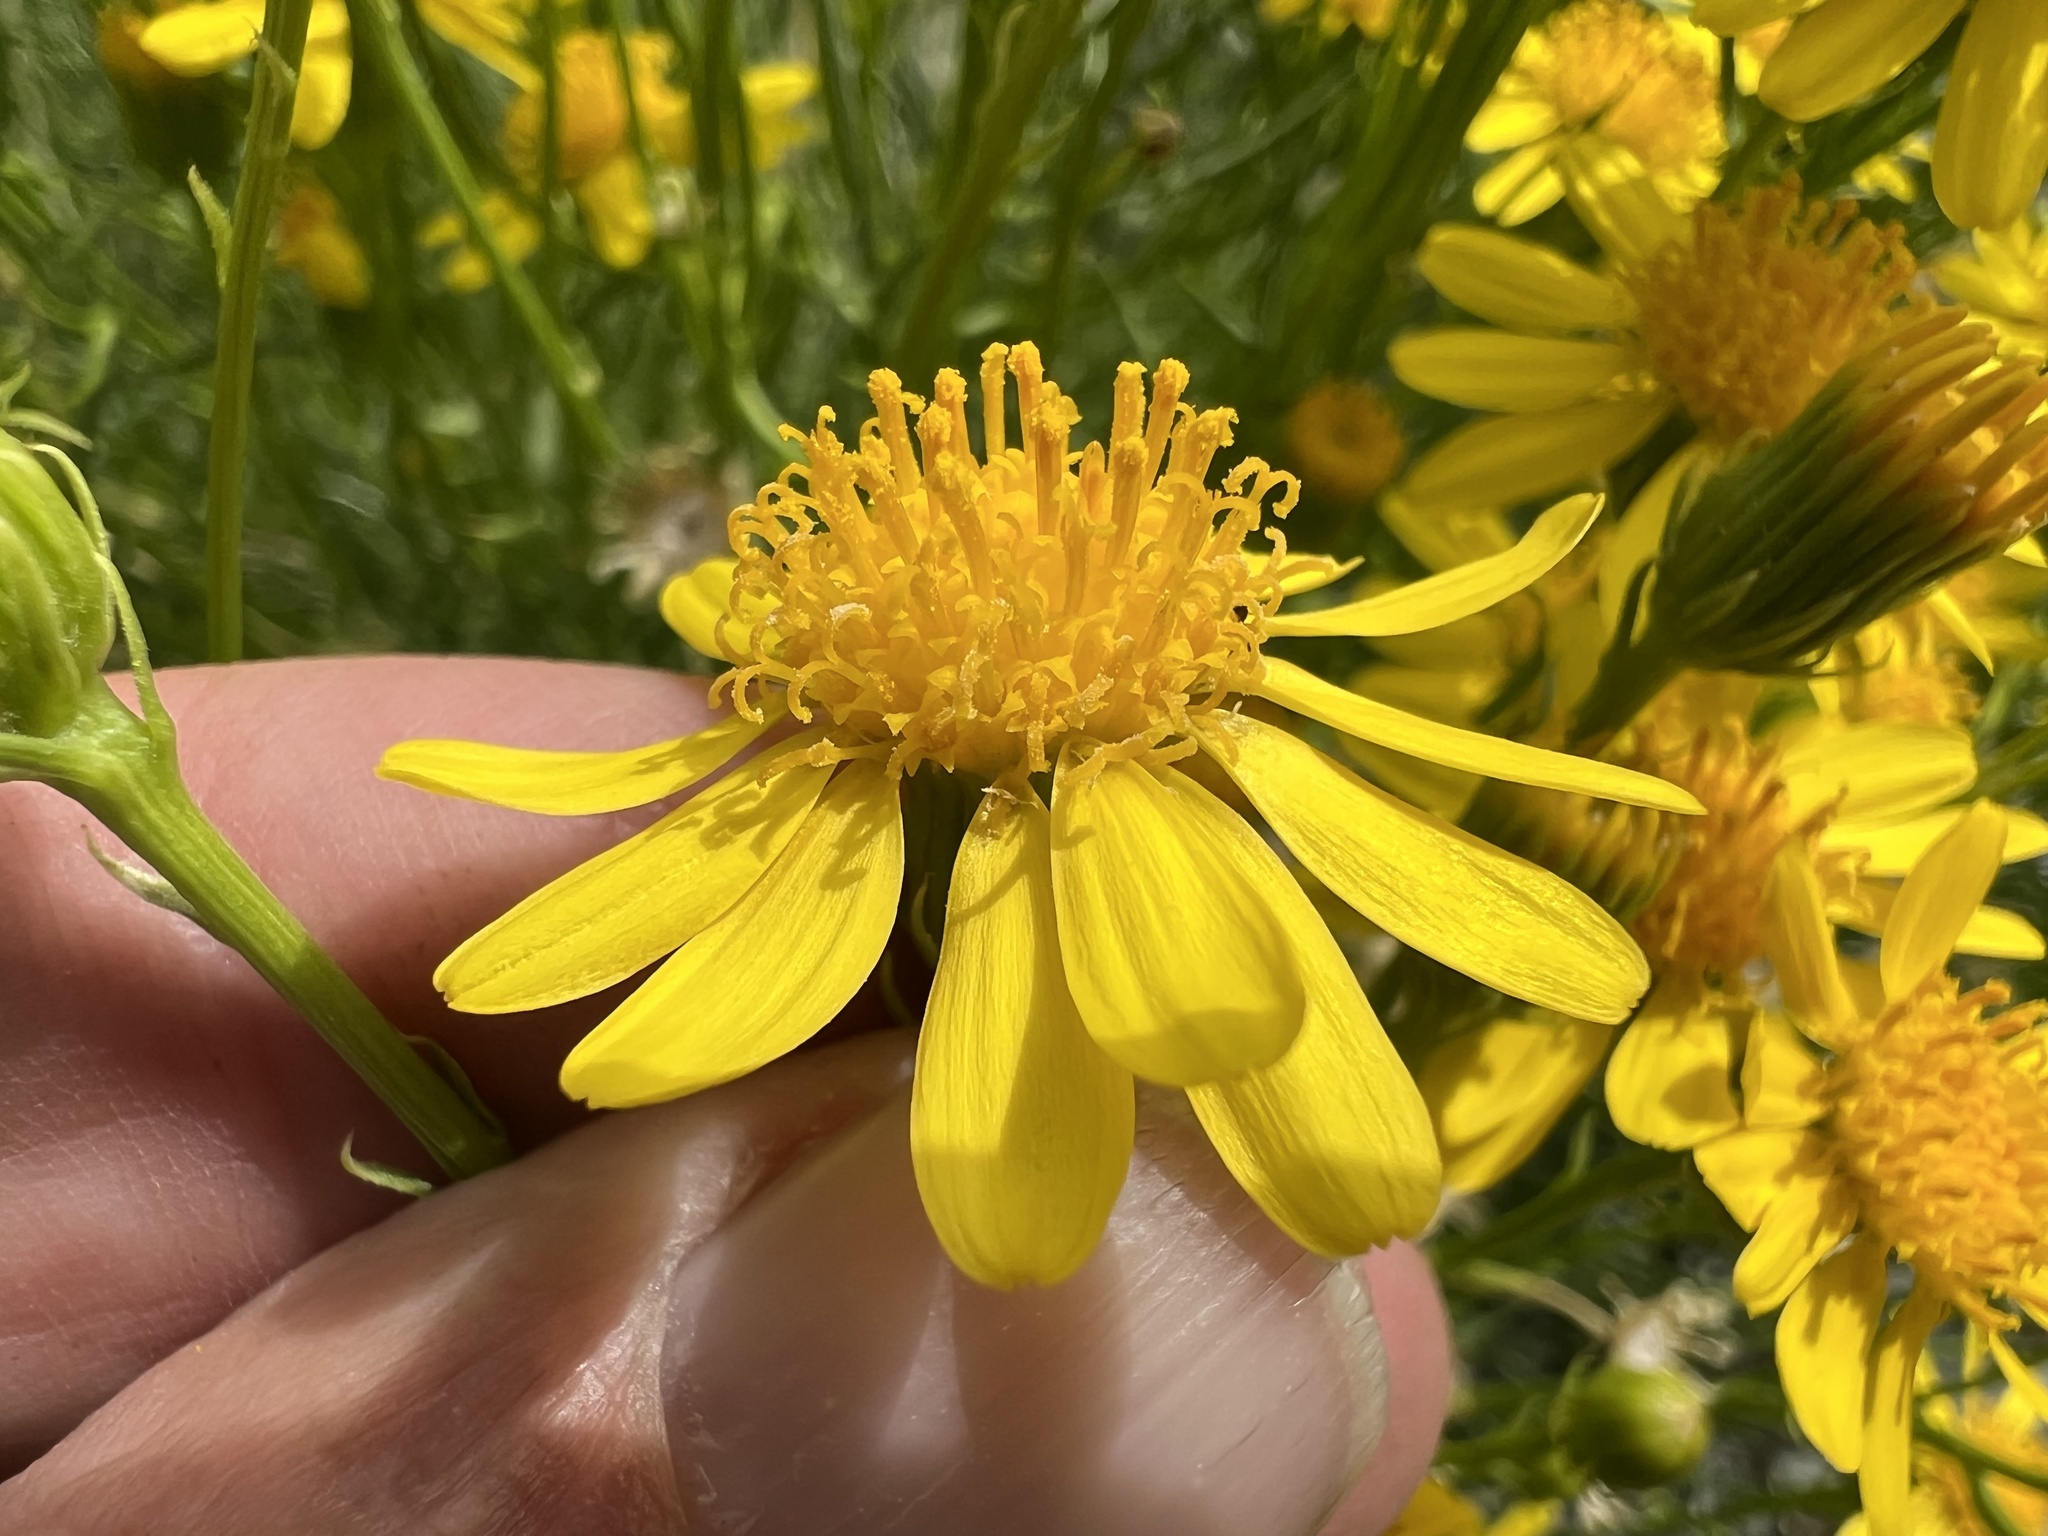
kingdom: Plantae
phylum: Tracheophyta
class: Magnoliopsida
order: Asterales
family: Asteraceae
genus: Senecio
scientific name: Senecio flaccidus
